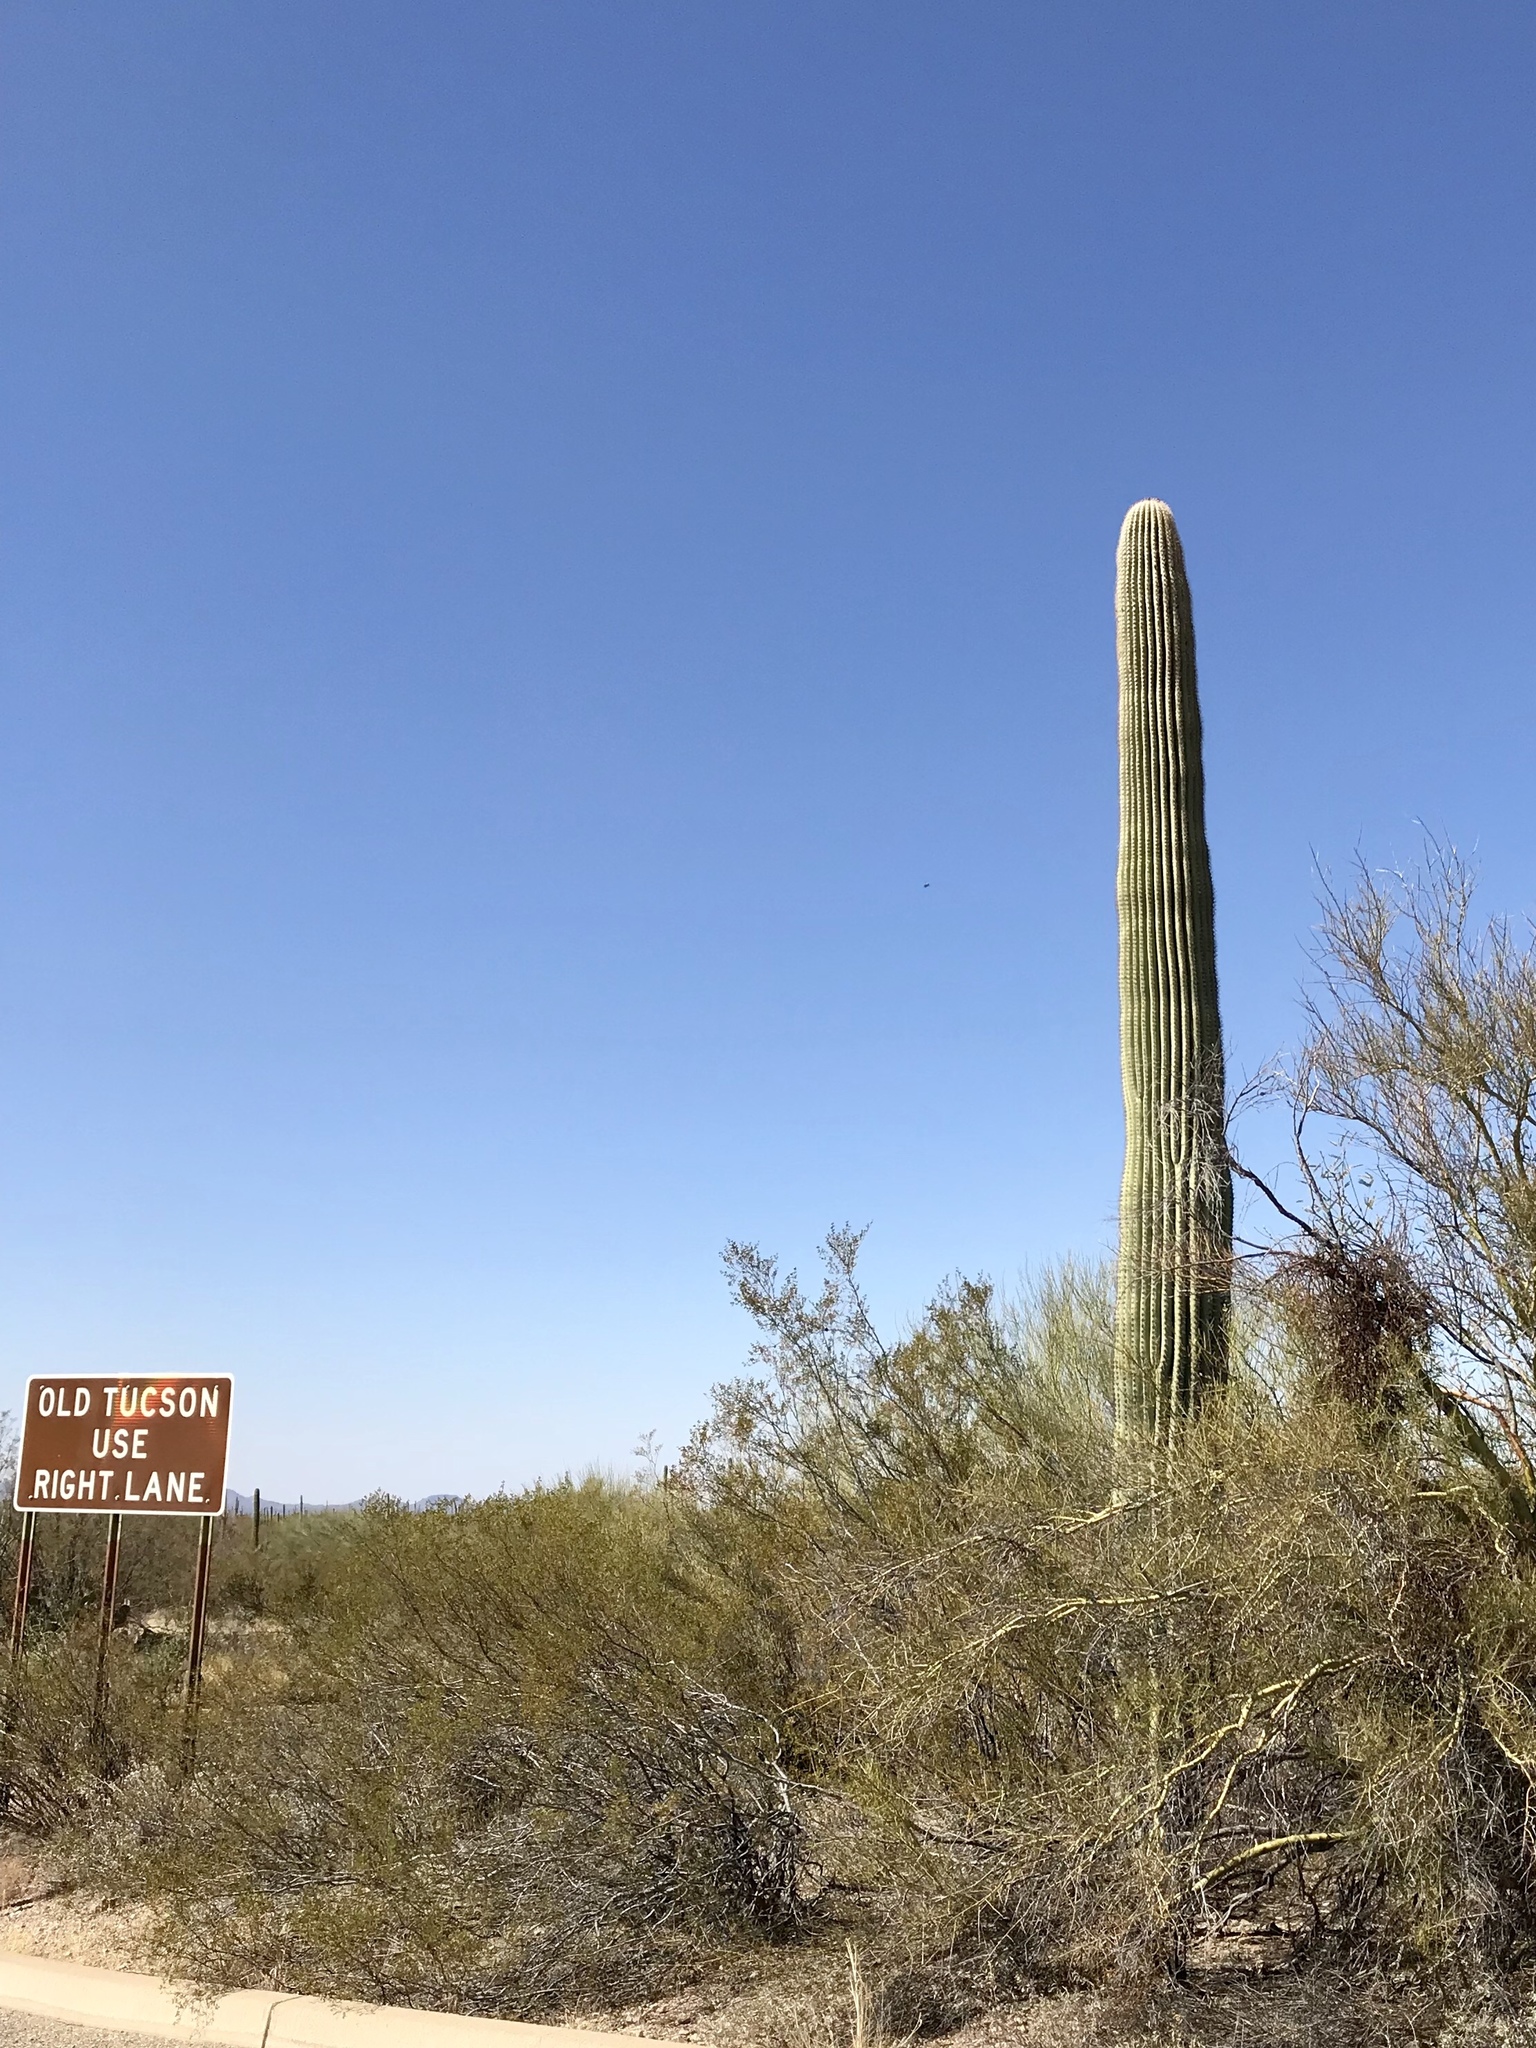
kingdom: Plantae
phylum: Tracheophyta
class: Magnoliopsida
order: Caryophyllales
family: Cactaceae
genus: Carnegiea
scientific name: Carnegiea gigantea
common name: Saguaro
